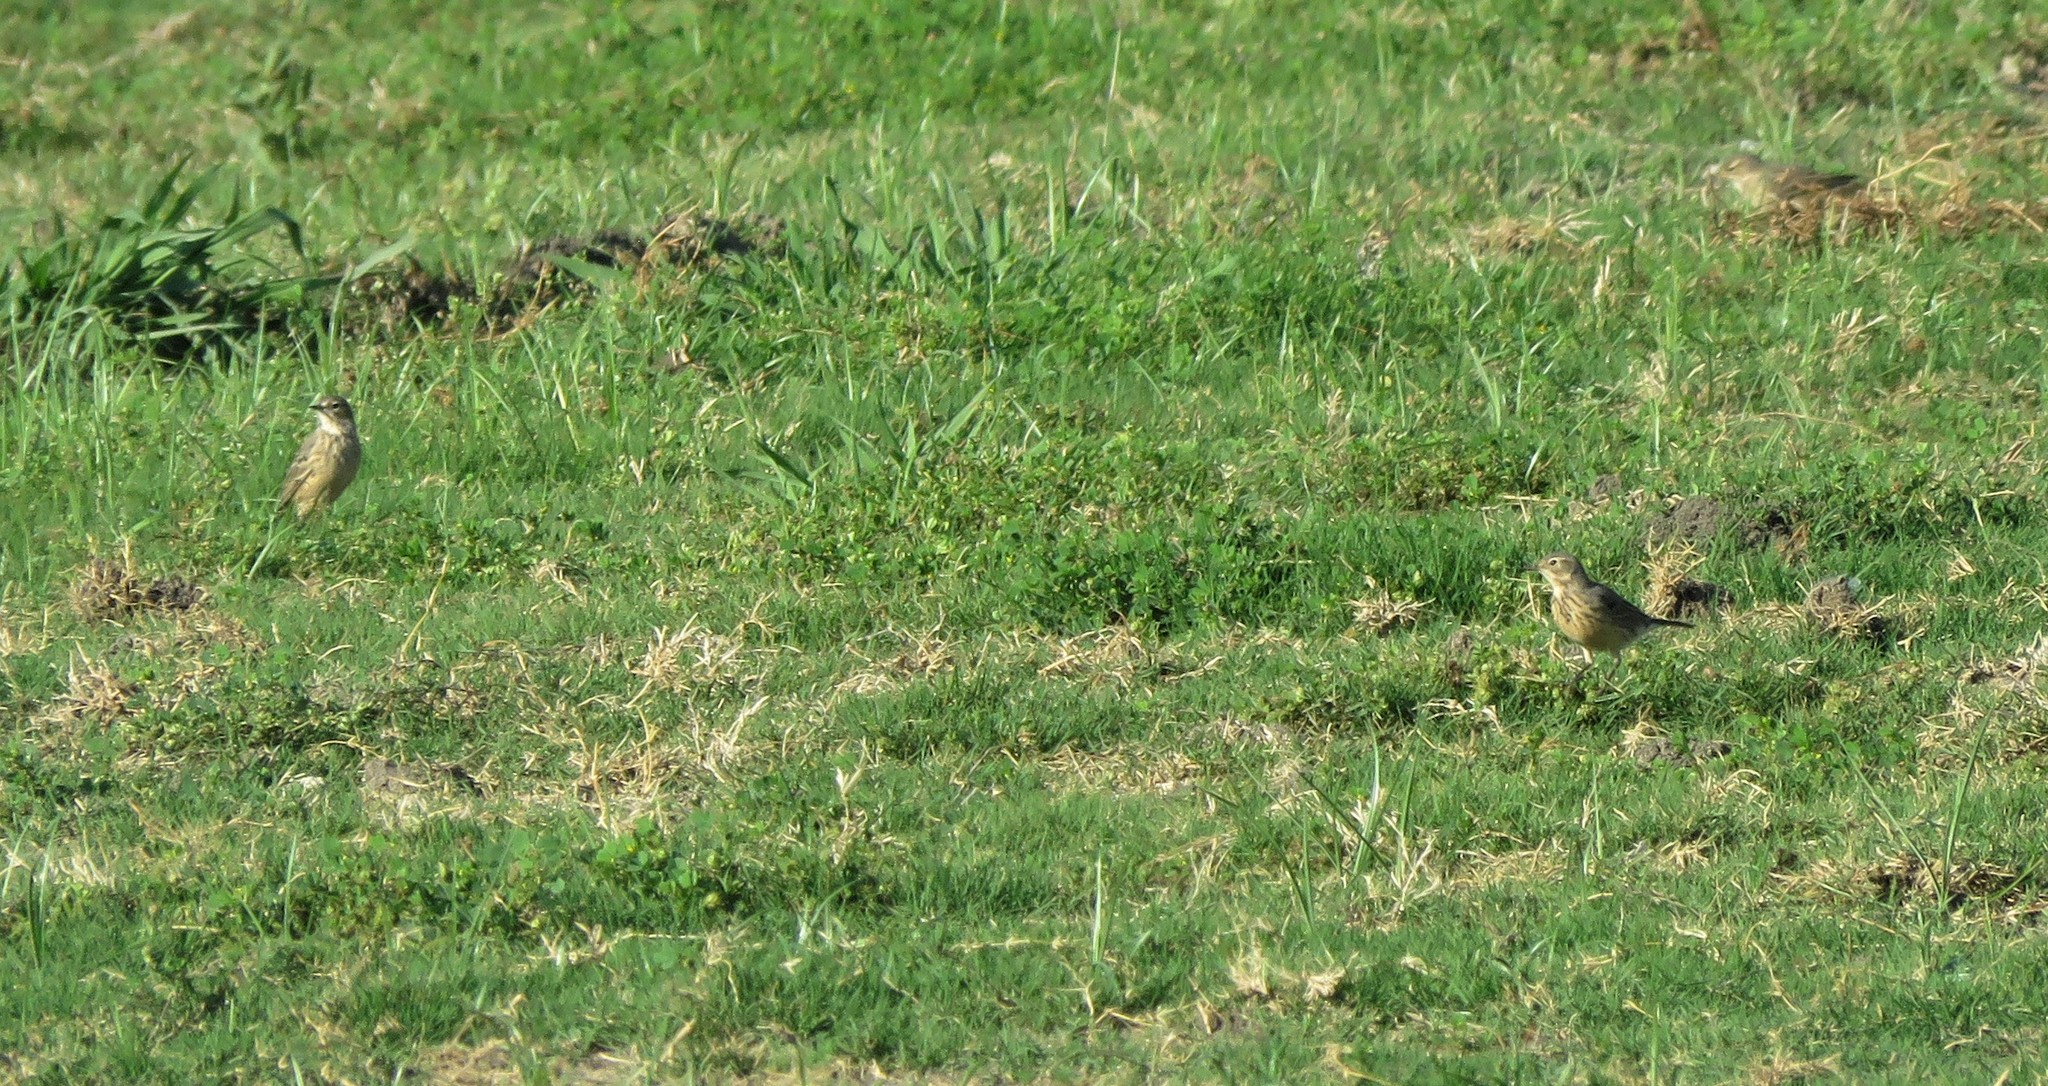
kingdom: Animalia
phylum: Chordata
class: Aves
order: Passeriformes
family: Motacillidae
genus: Anthus
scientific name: Anthus rubescens
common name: Buff-bellied pipit
